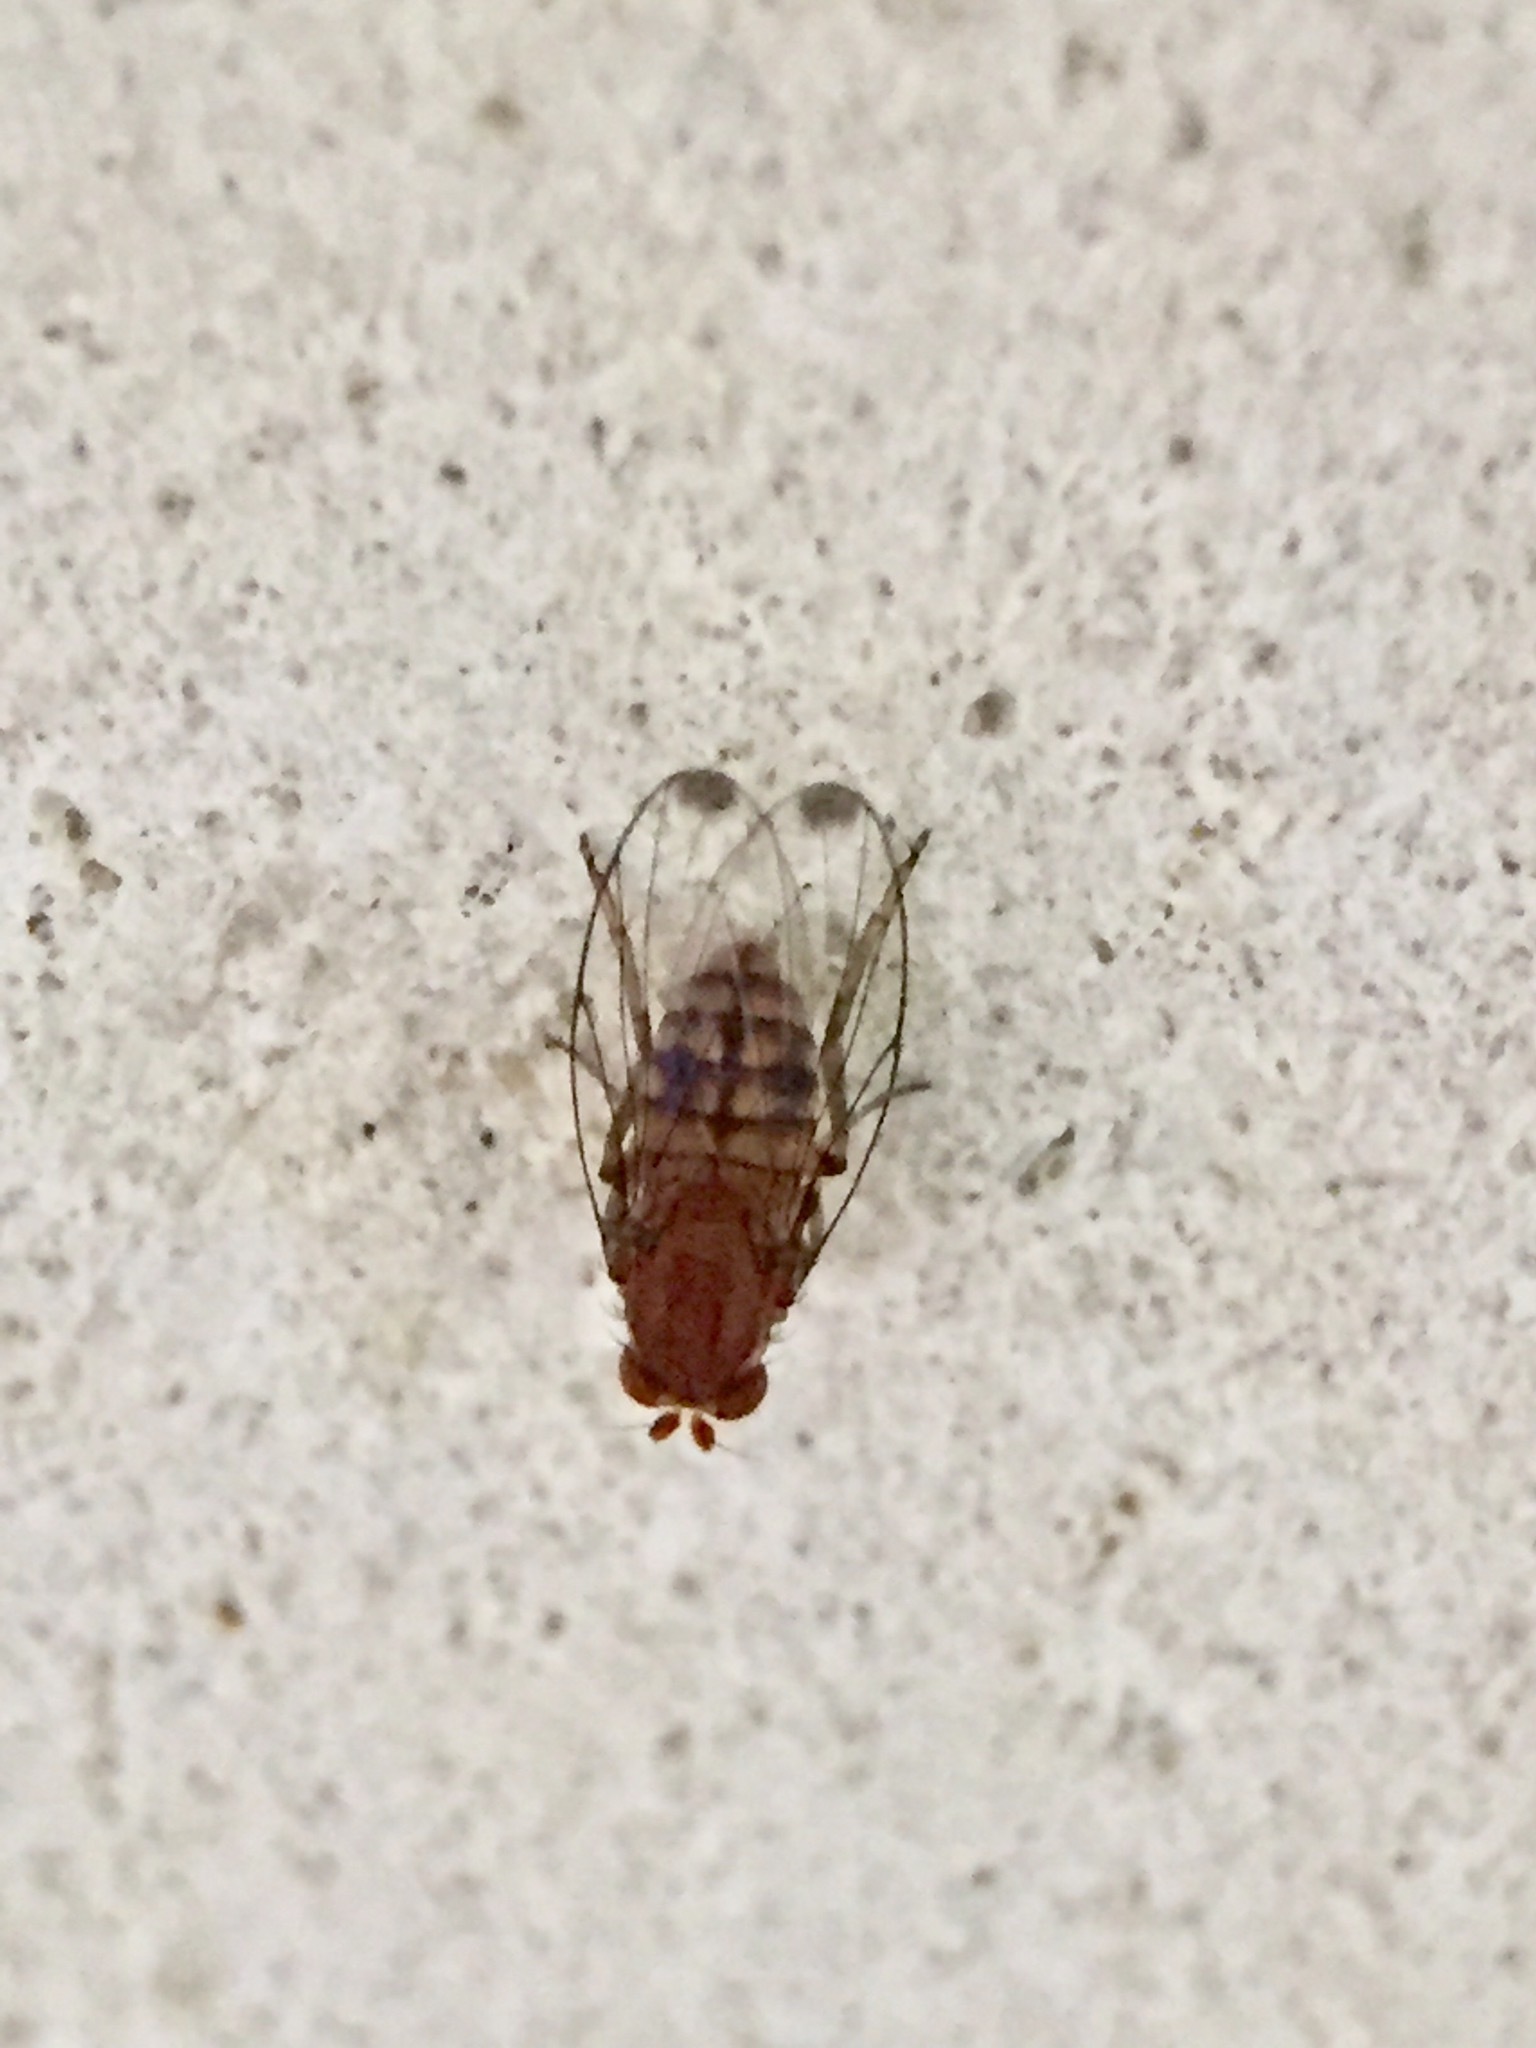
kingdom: Animalia
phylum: Arthropoda
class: Insecta
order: Diptera
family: Phoridae
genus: Sciadocera
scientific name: Sciadocera rufomaculata
